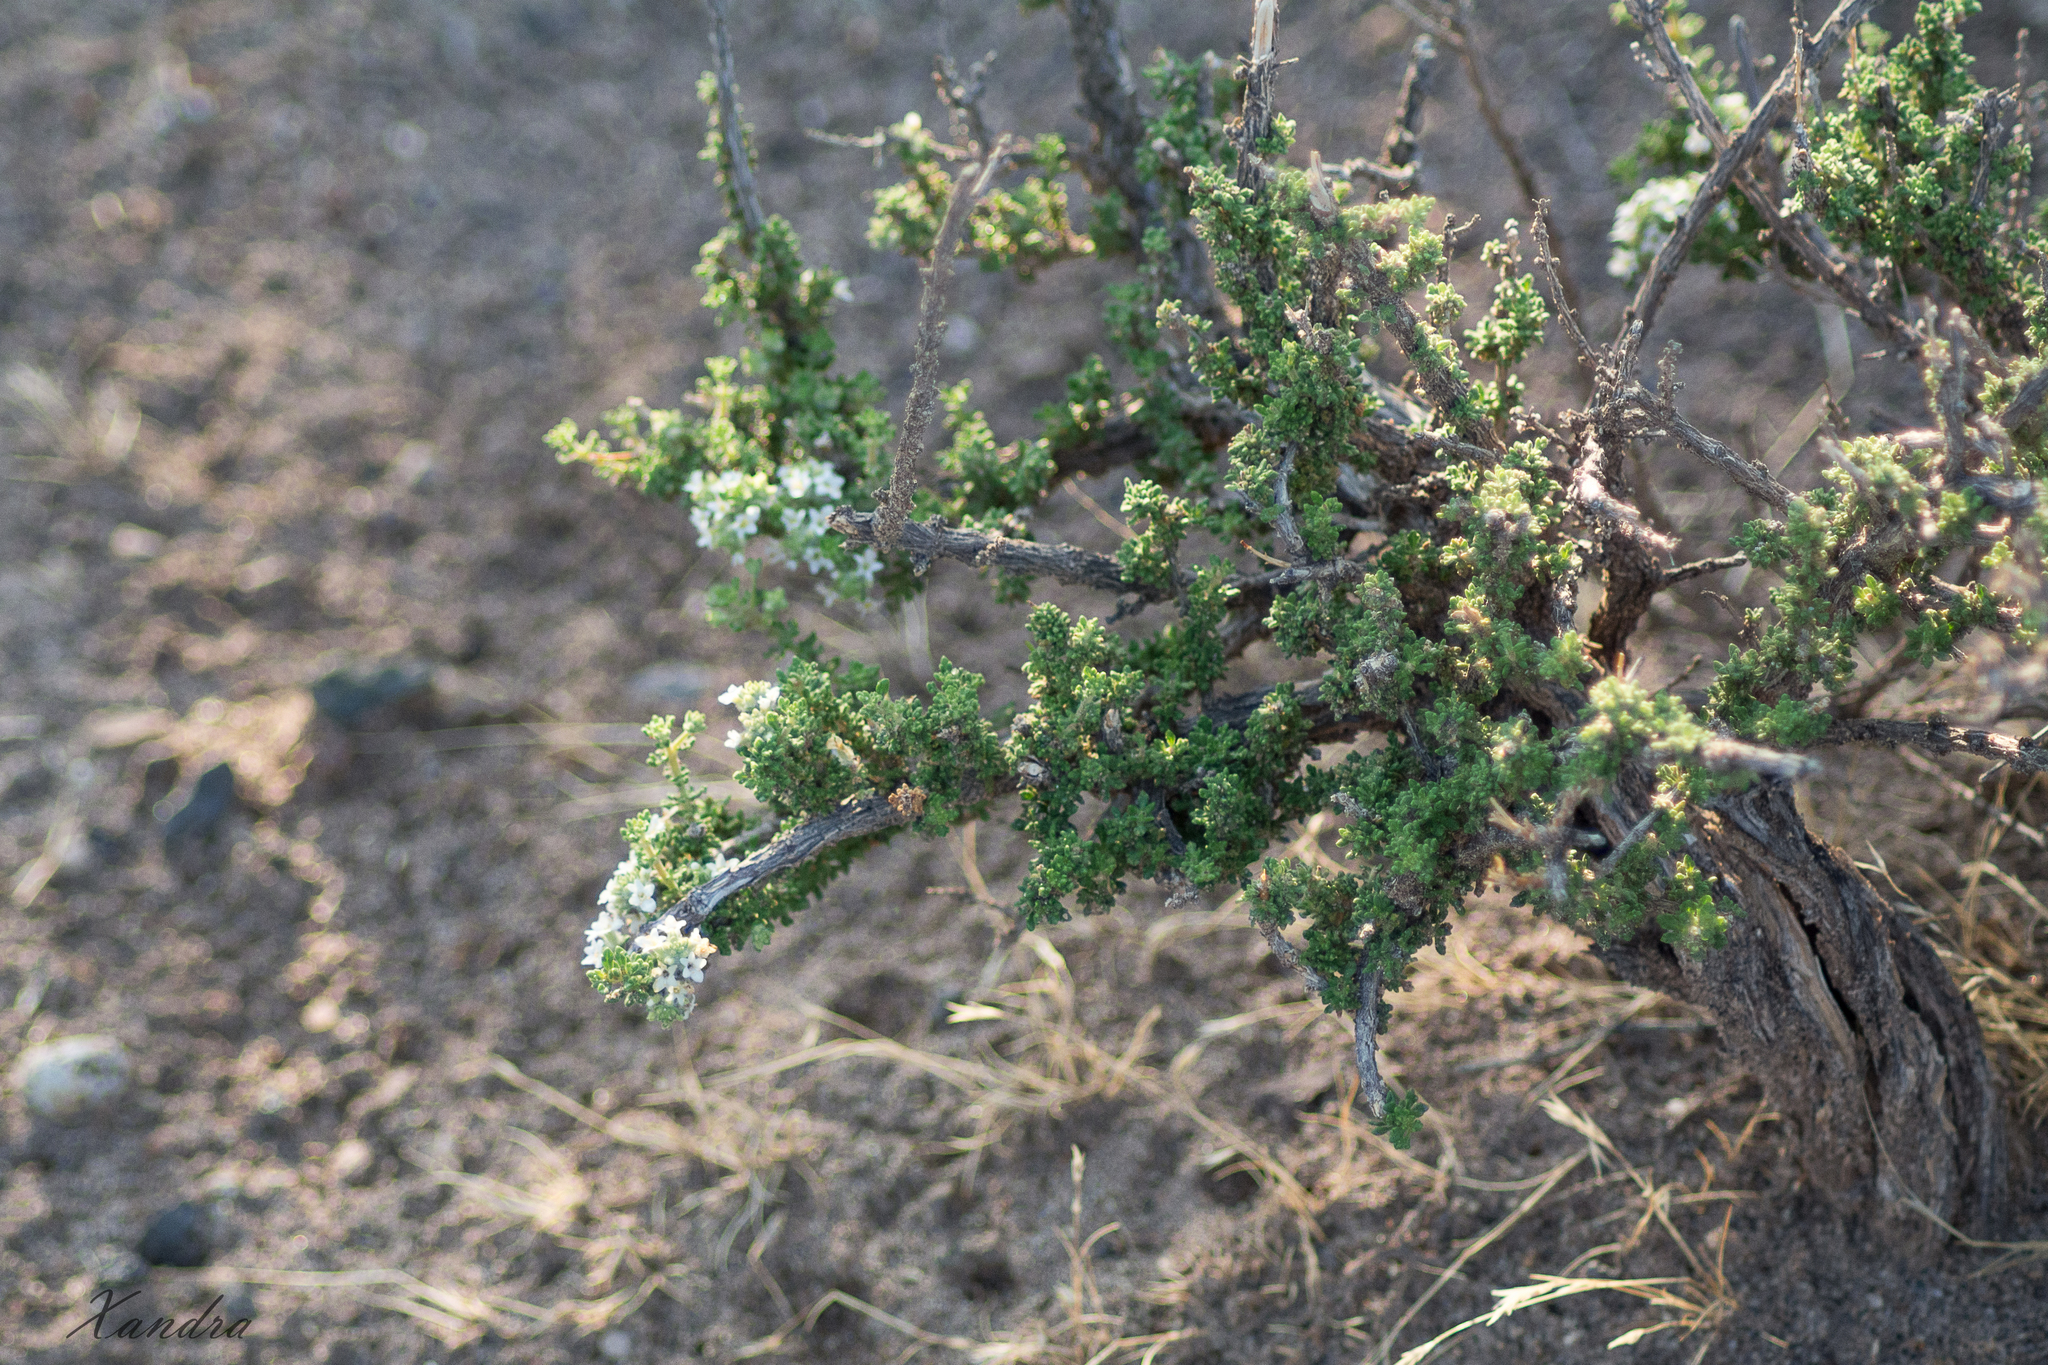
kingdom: Plantae
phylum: Tracheophyta
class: Magnoliopsida
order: Lamiales
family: Verbenaceae
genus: Acantholippia
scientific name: Acantholippia seriphioides
